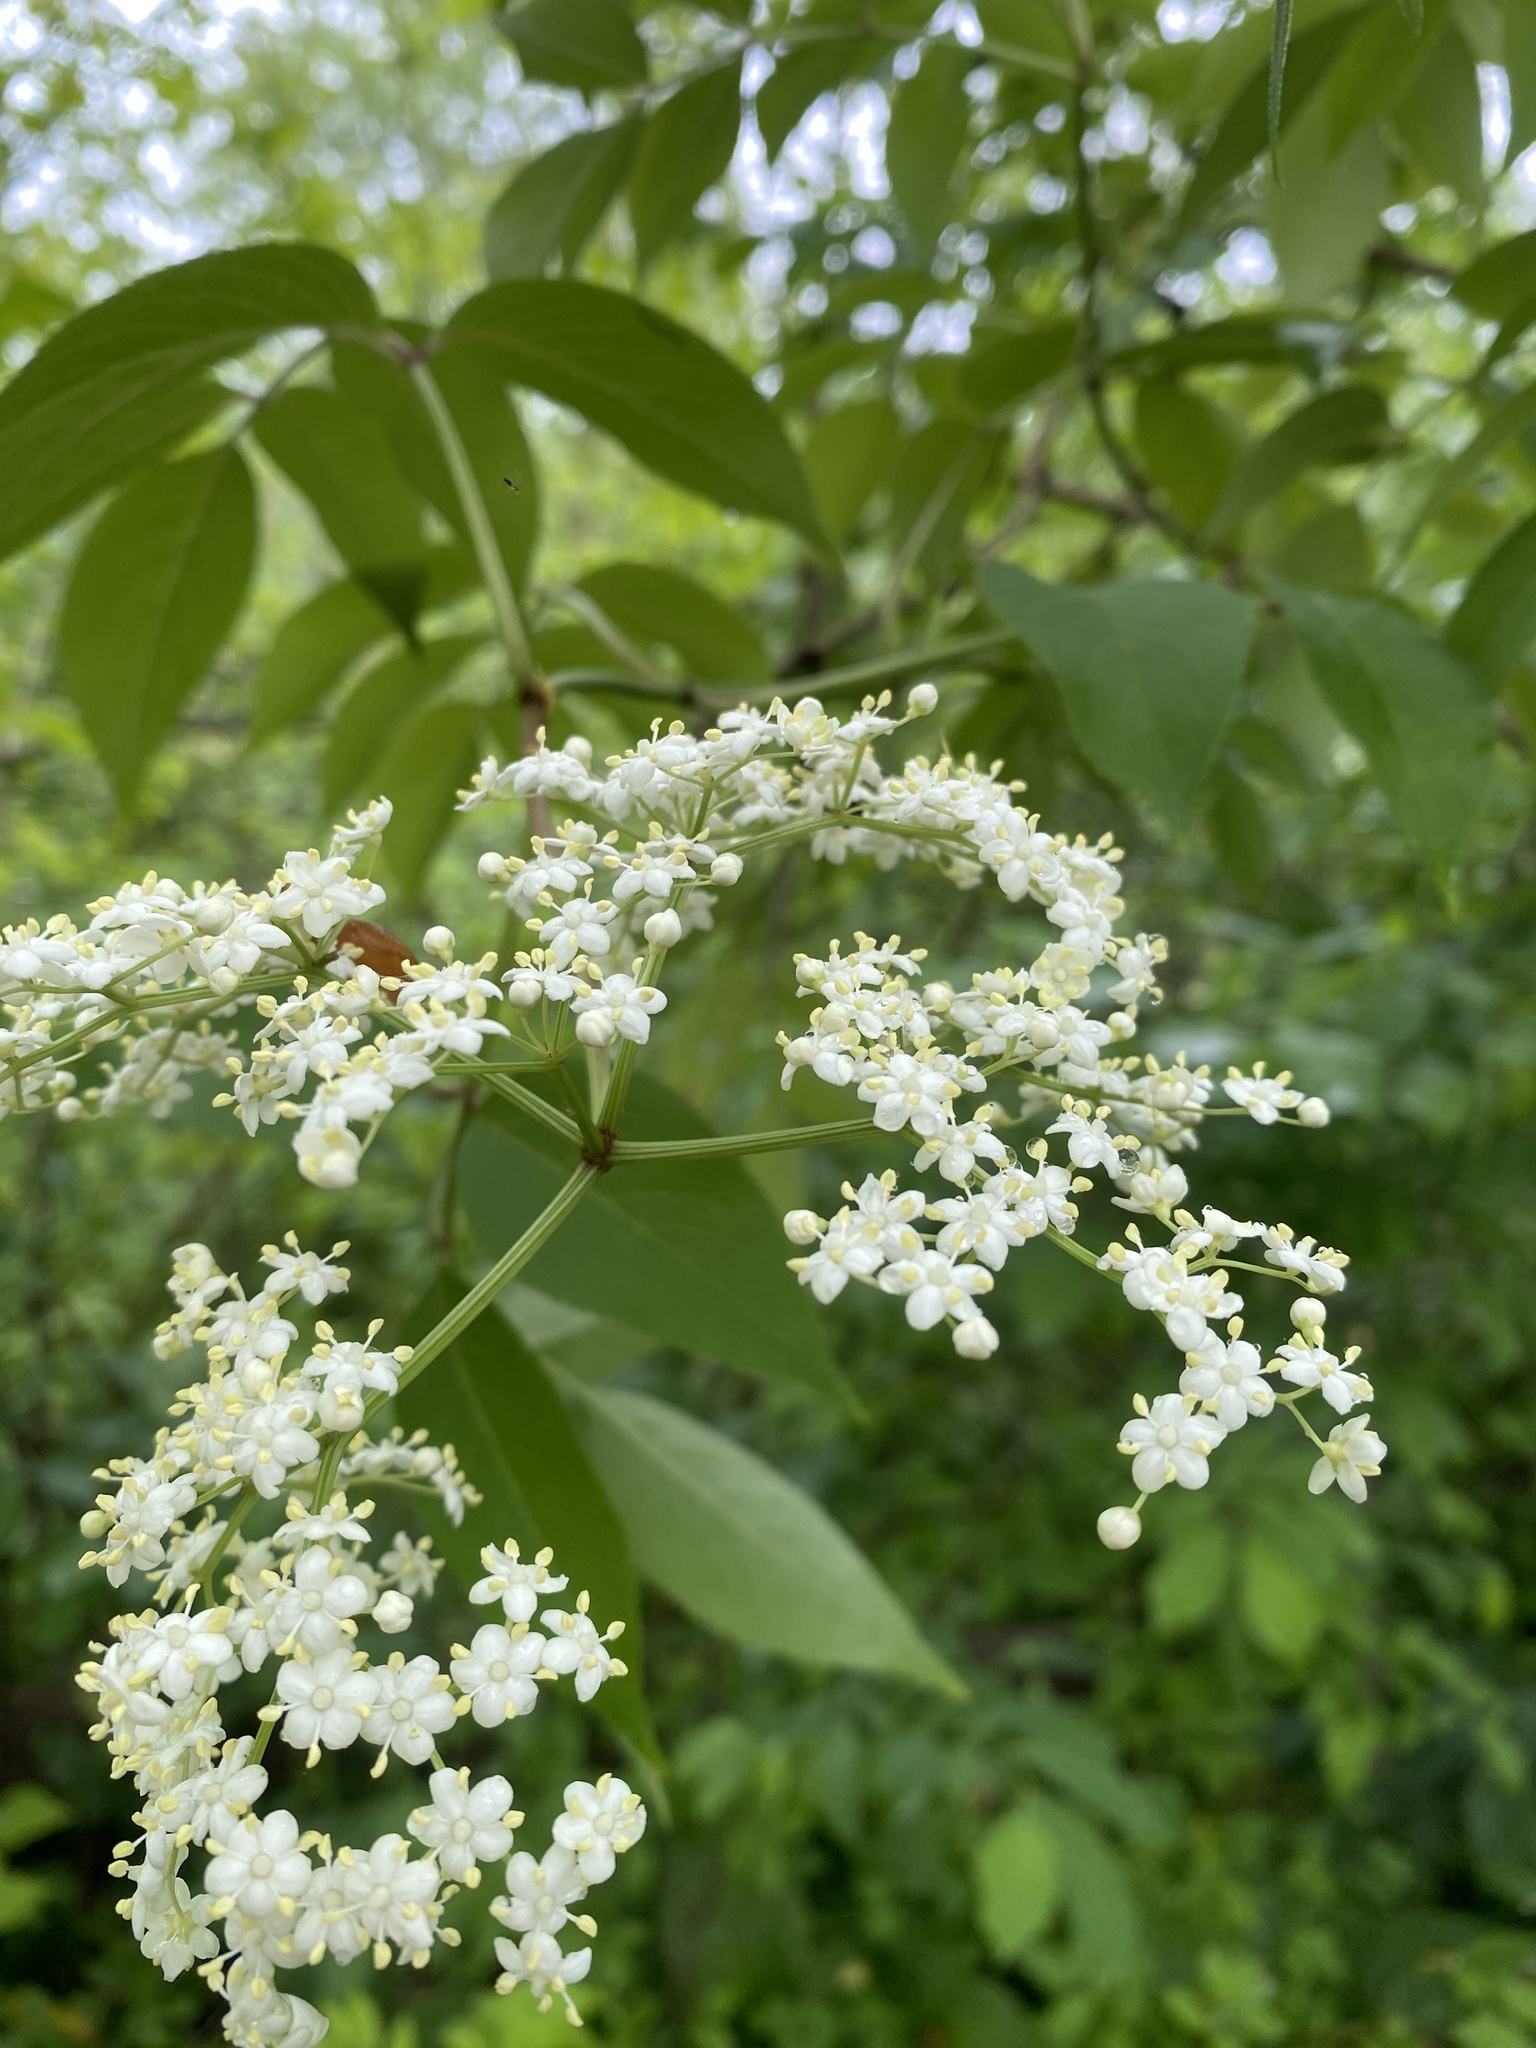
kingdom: Plantae
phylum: Tracheophyta
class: Magnoliopsida
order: Dipsacales
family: Viburnaceae
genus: Sambucus
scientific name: Sambucus canadensis
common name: American elder
